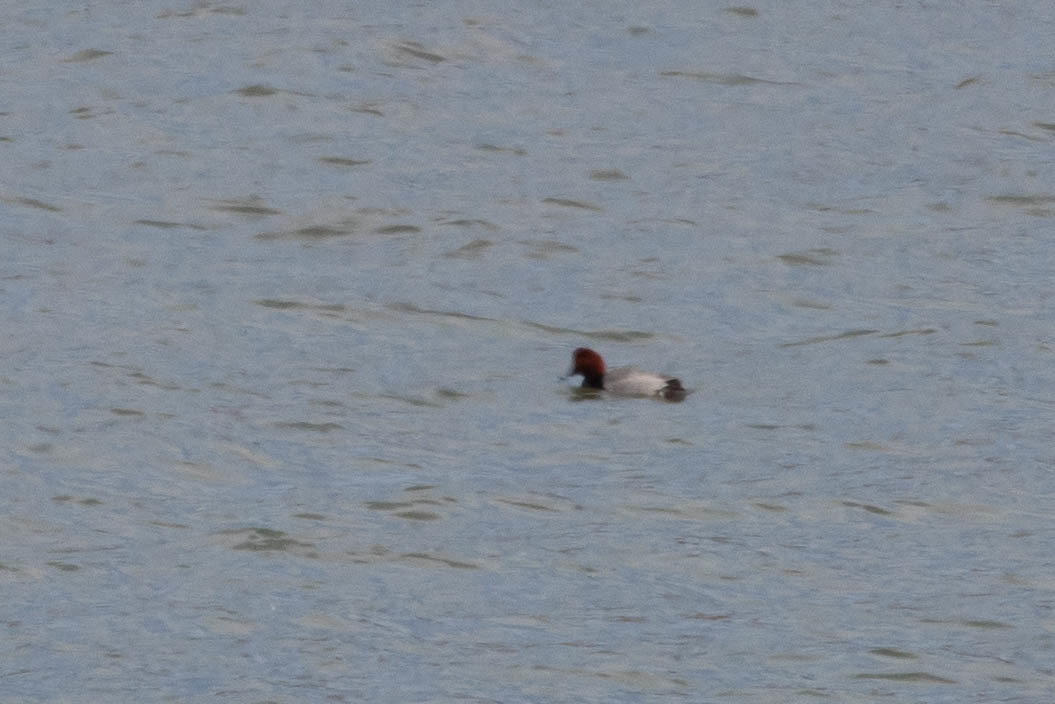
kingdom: Animalia
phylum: Chordata
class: Aves
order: Anseriformes
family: Anatidae
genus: Aythya
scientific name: Aythya americana
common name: Redhead
